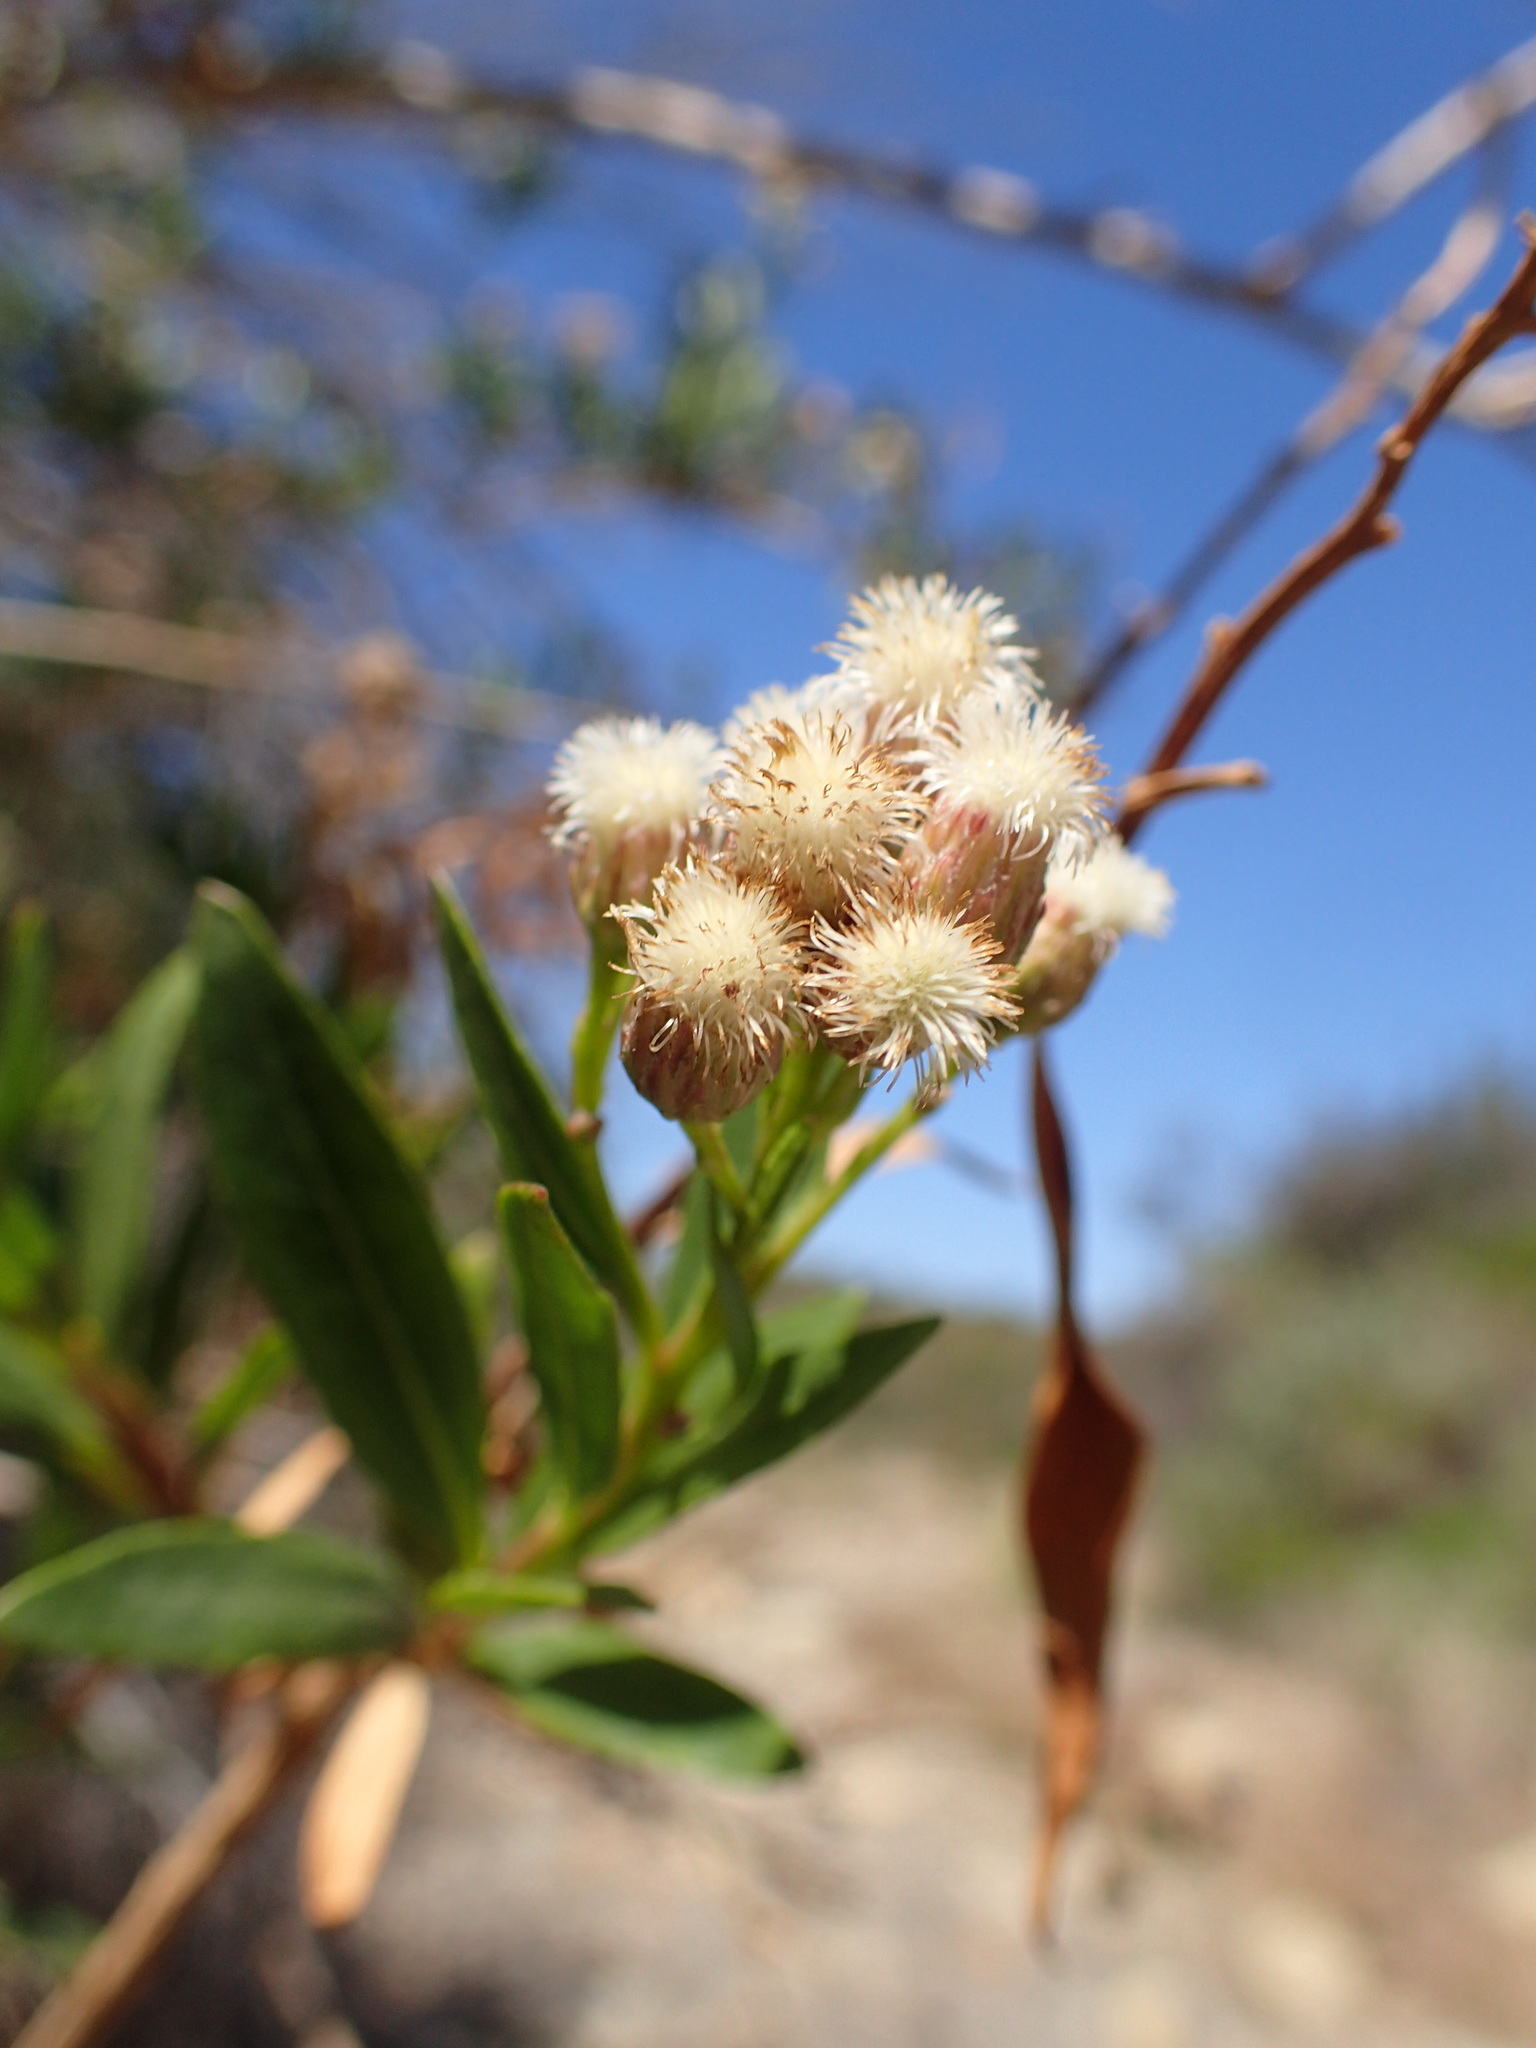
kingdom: Plantae
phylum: Tracheophyta
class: Magnoliopsida
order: Asterales
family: Asteraceae
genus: Baccharis
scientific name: Baccharis salicifolia
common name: Sticky baccharis
